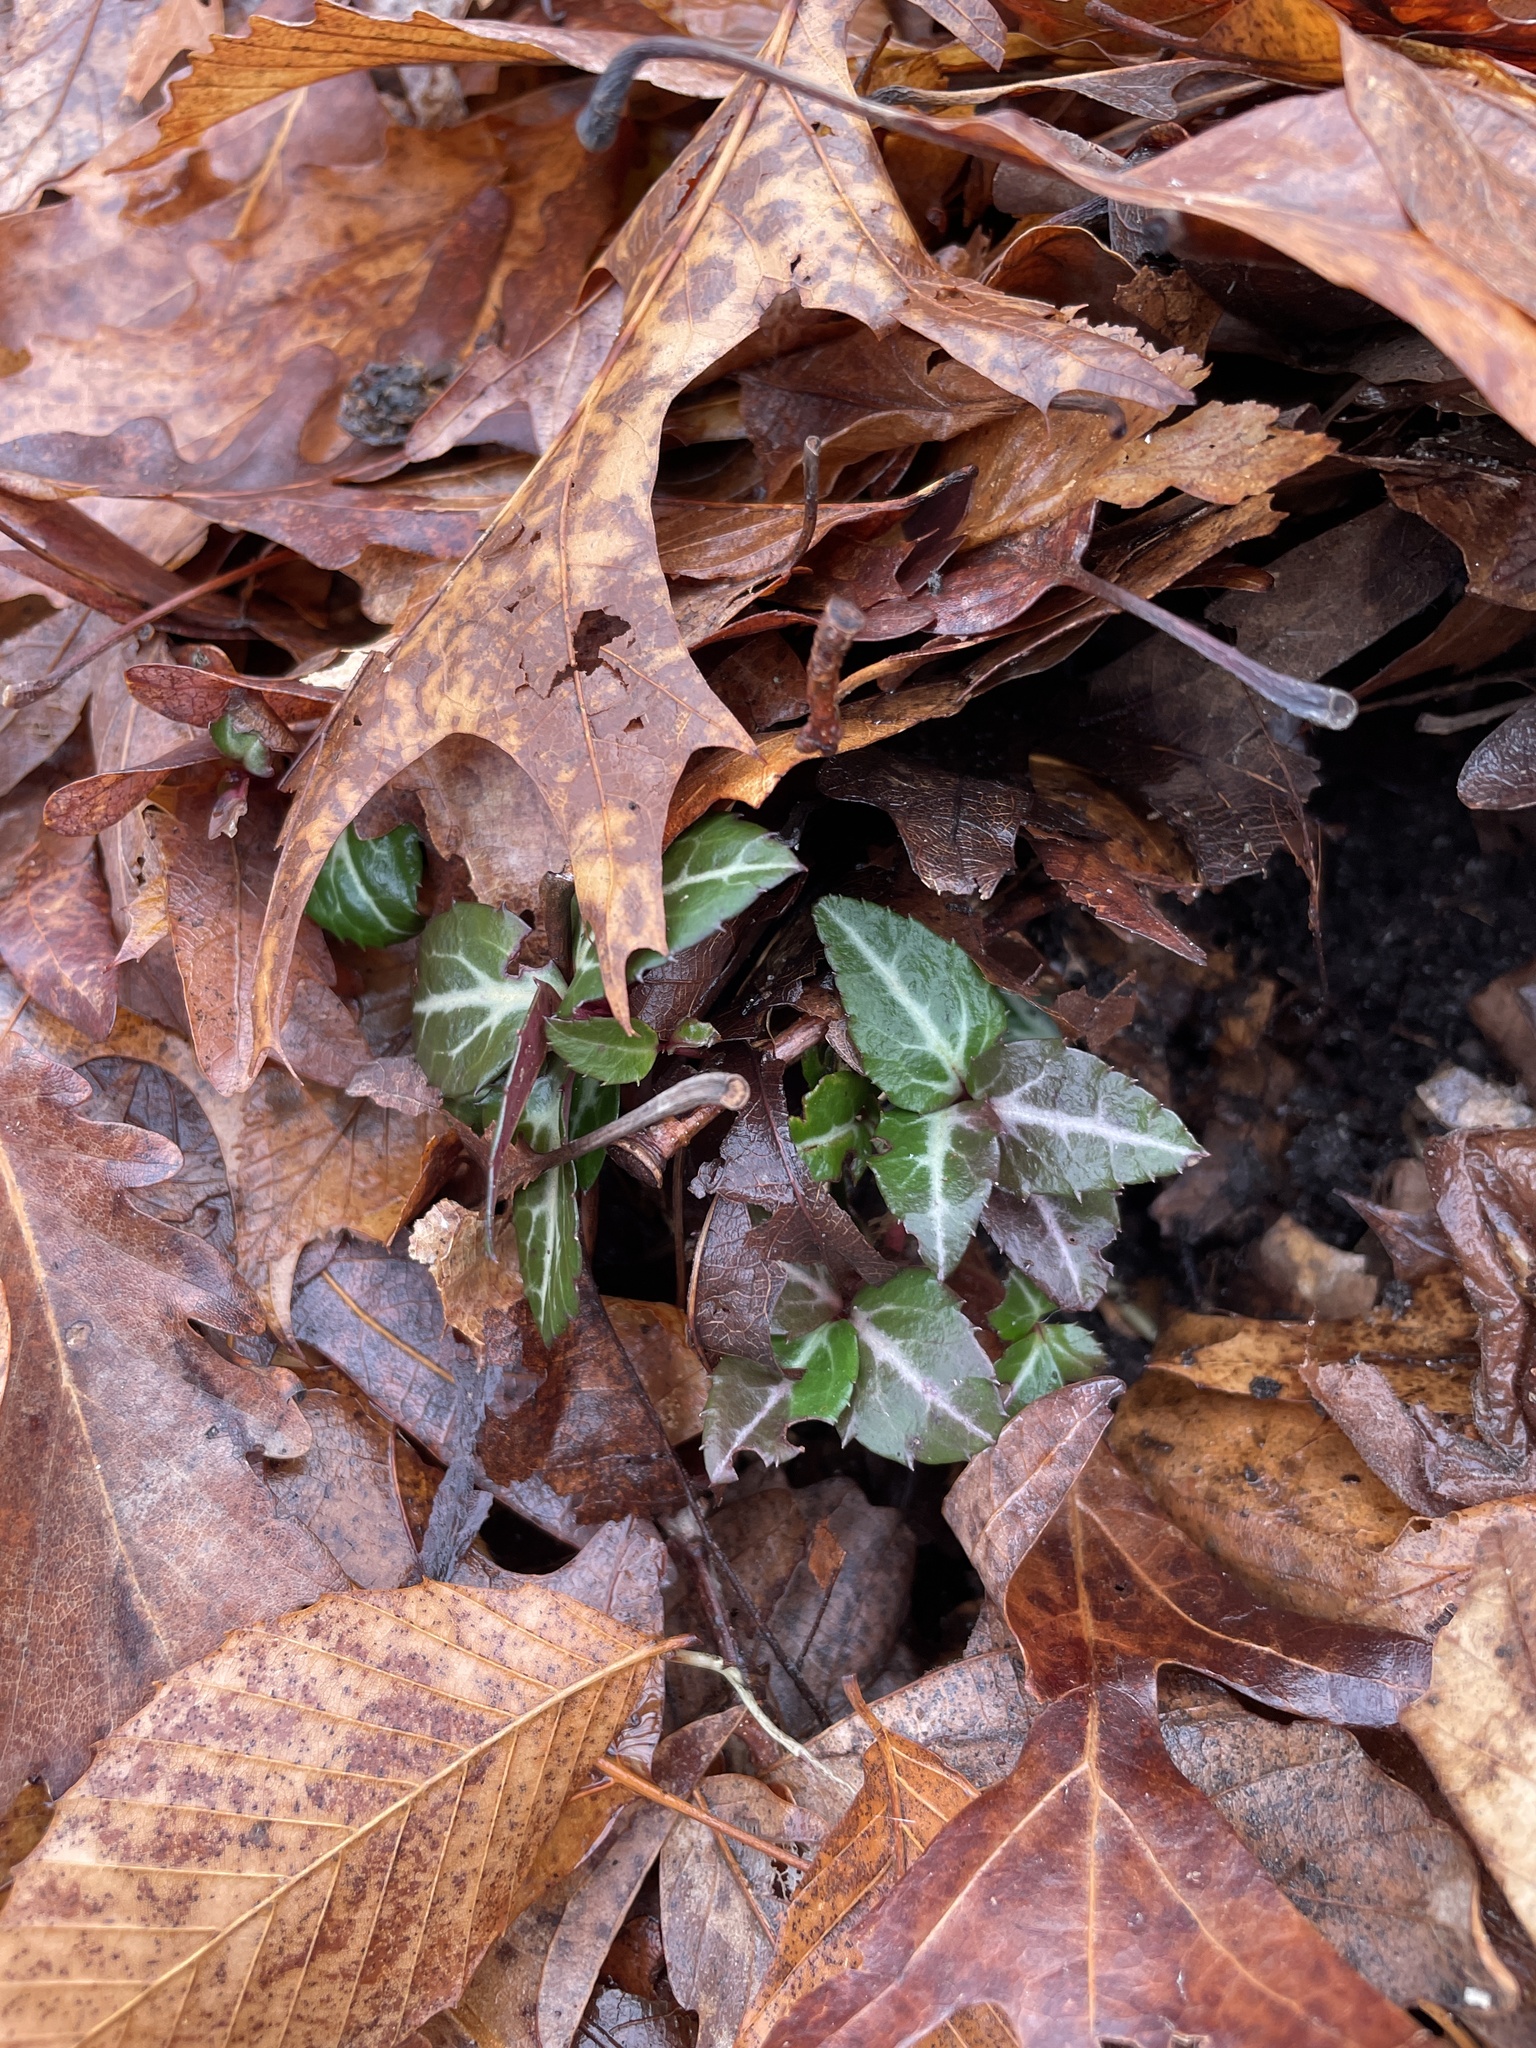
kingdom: Plantae
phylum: Tracheophyta
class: Magnoliopsida
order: Ericales
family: Ericaceae
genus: Chimaphila
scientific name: Chimaphila maculata
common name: Spotted pipsissewa
